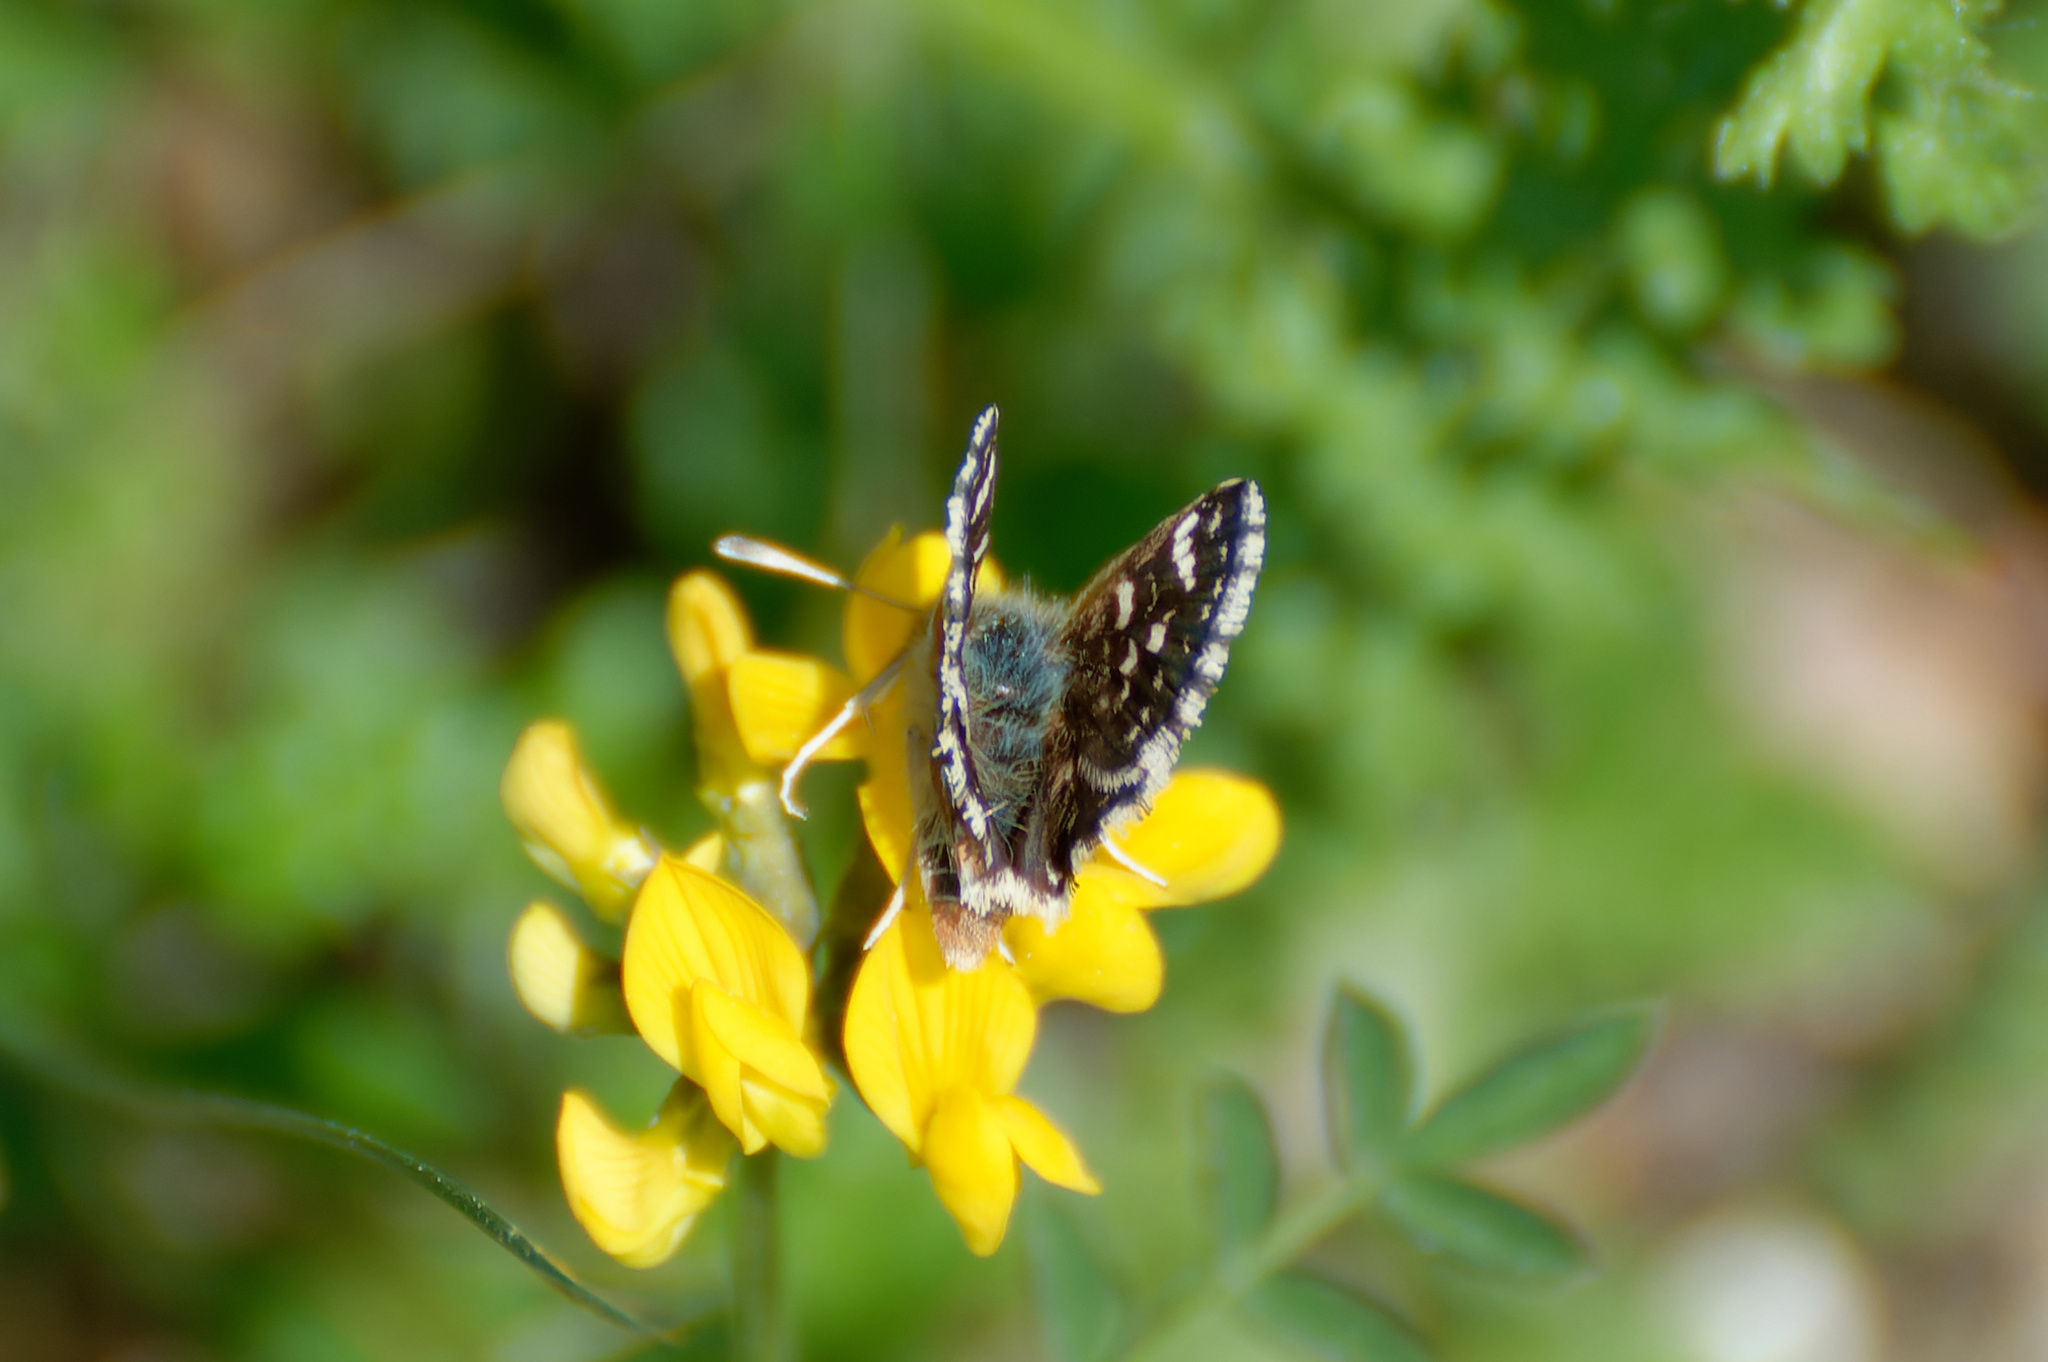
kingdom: Animalia
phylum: Arthropoda
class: Insecta
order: Lepidoptera
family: Hesperiidae
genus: Spialia
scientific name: Spialia sertorius
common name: Red underwing skipper
